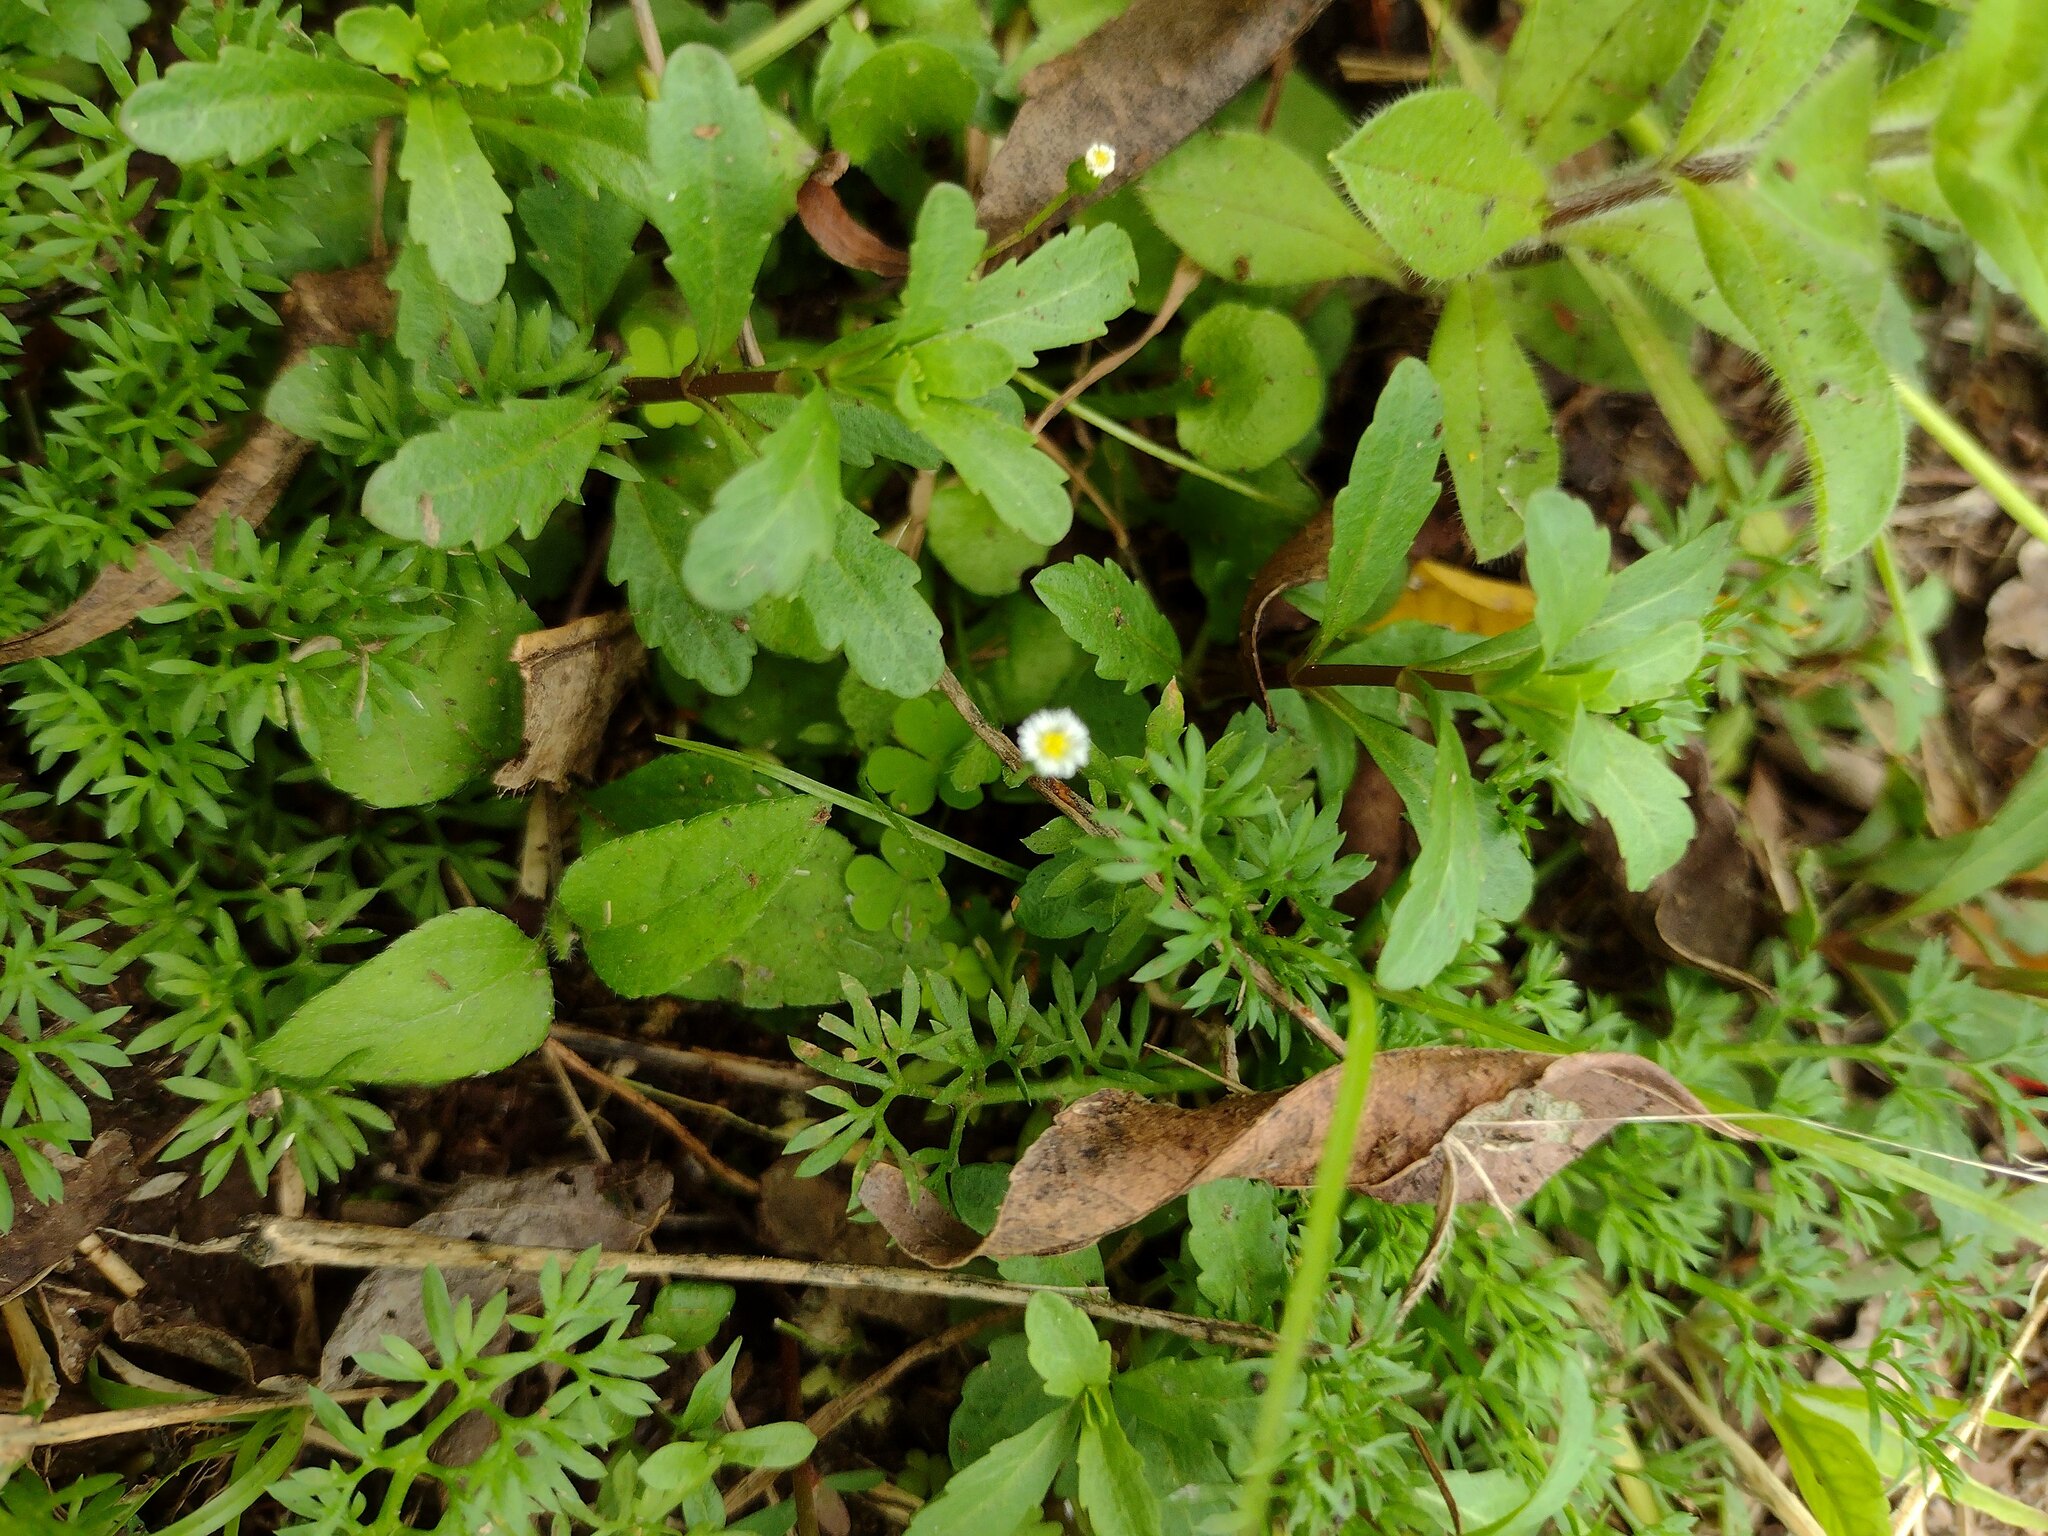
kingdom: Plantae
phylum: Tracheophyta
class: Magnoliopsida
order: Asterales
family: Asteraceae
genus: Erigeron
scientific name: Erigeron bellioides
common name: Bellorita
